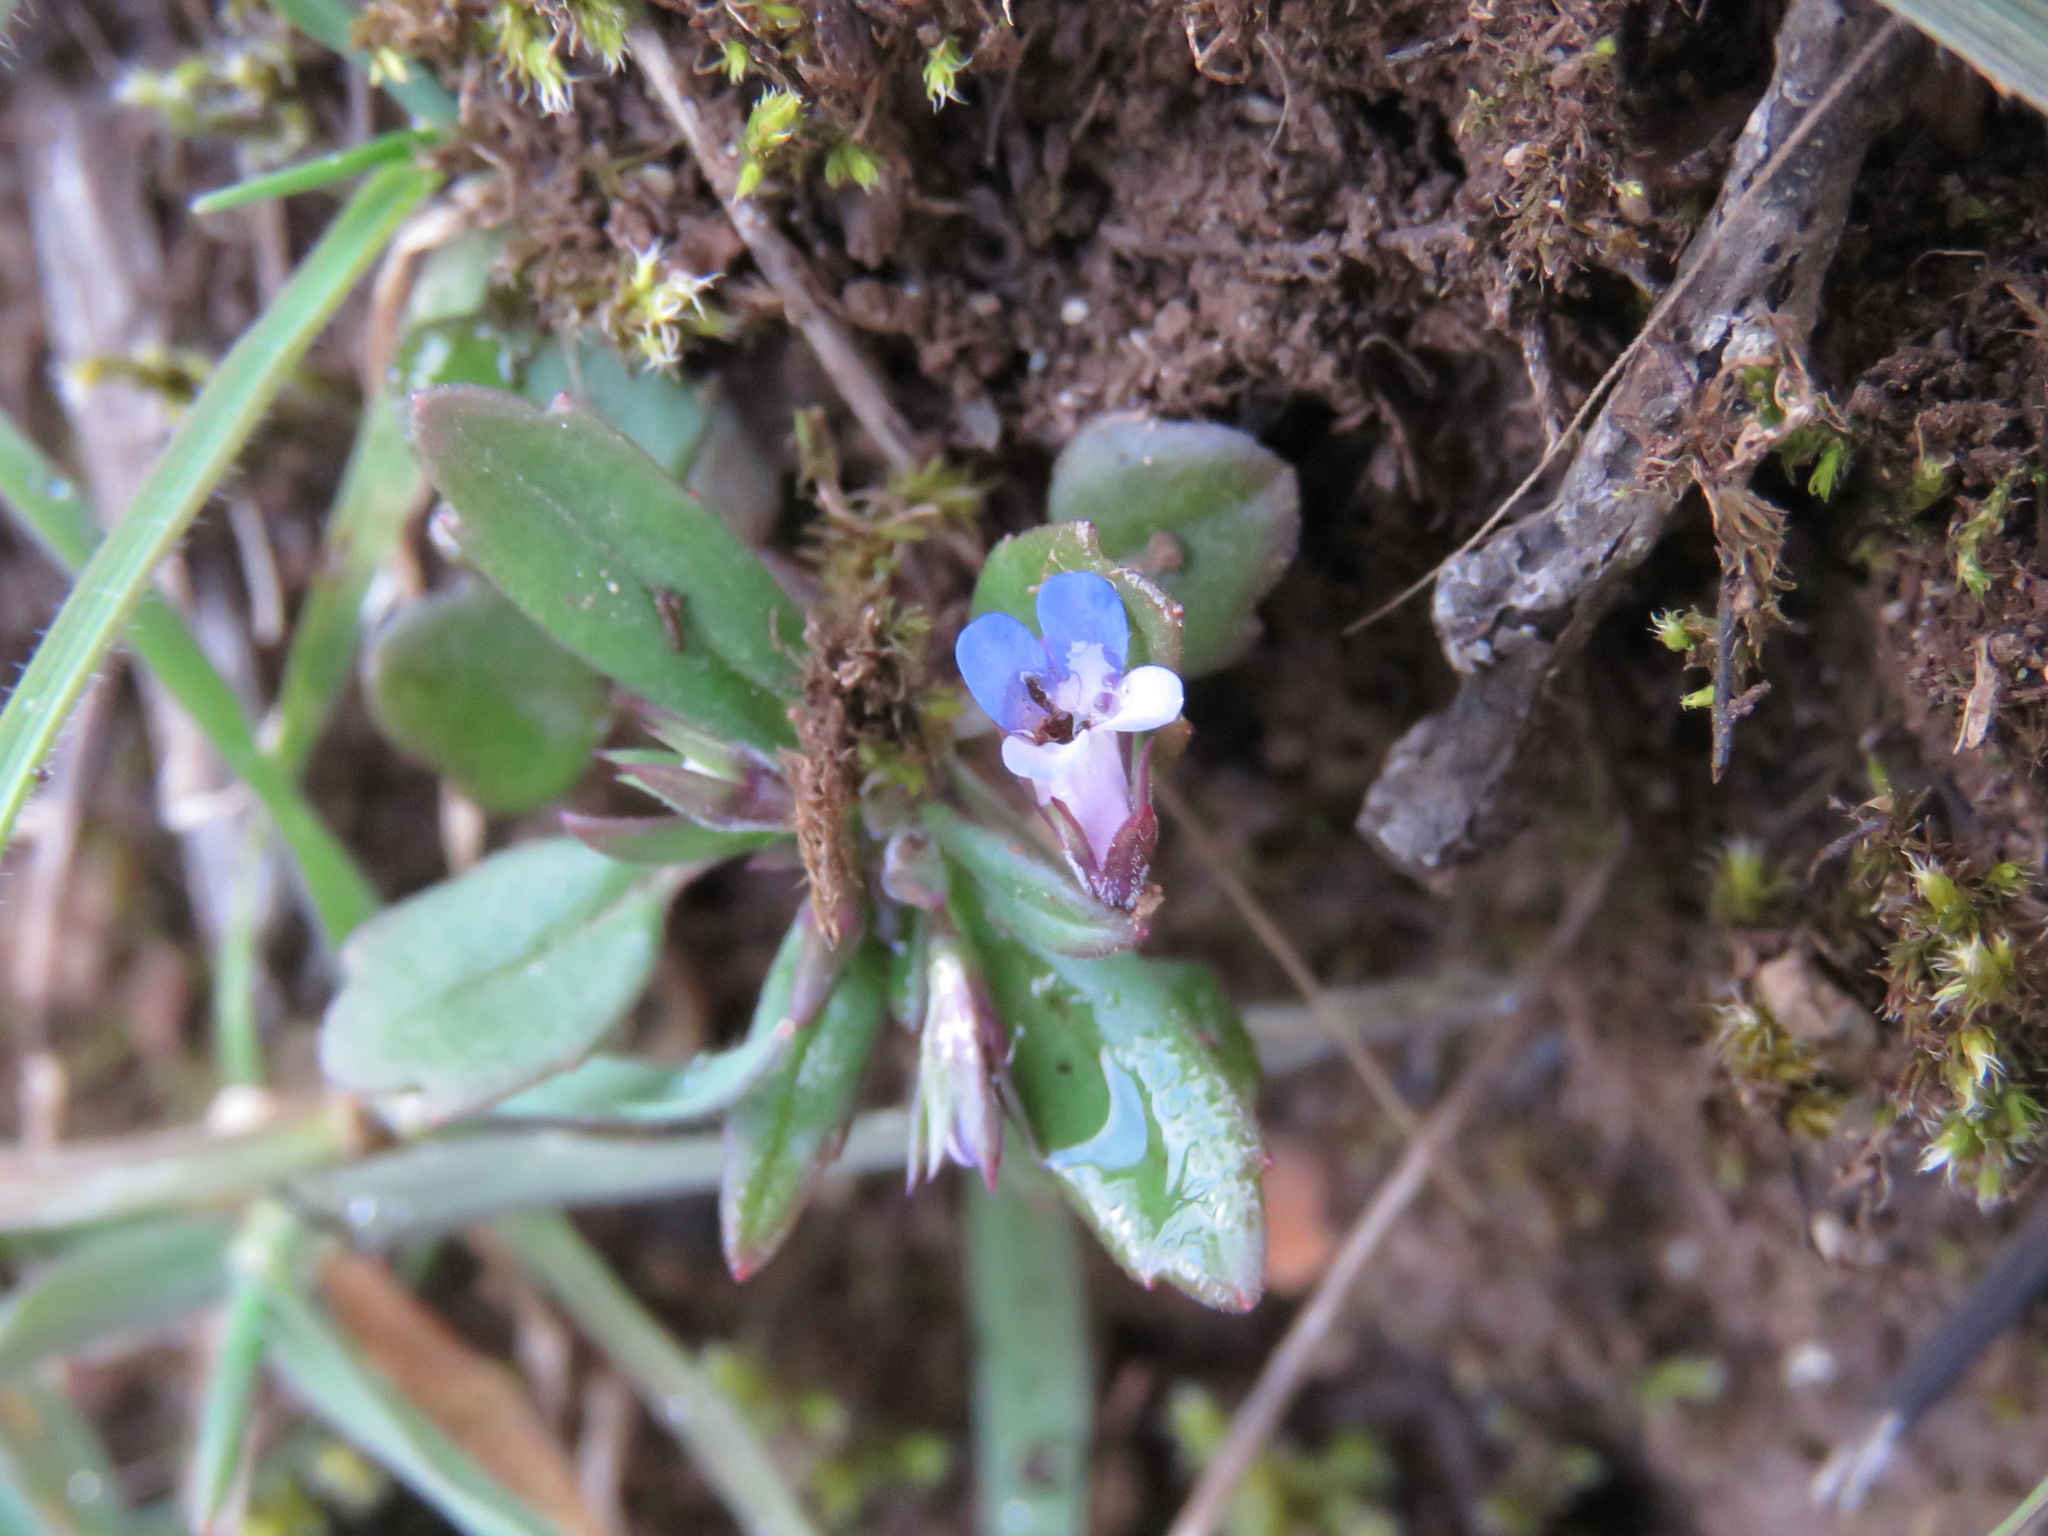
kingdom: Plantae
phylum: Tracheophyta
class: Magnoliopsida
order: Lamiales
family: Plantaginaceae
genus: Collinsia
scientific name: Collinsia parviflora
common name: Blue-lips
